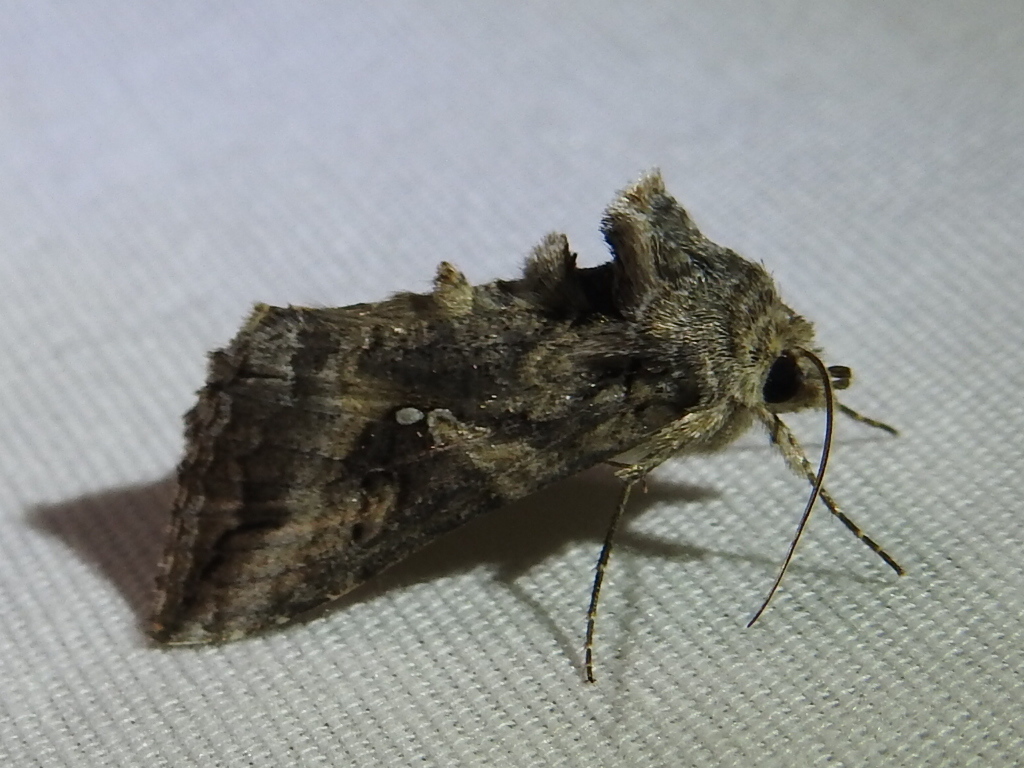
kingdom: Animalia
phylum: Arthropoda
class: Insecta
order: Lepidoptera
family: Noctuidae
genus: Rachiplusia
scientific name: Rachiplusia ou
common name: Gray looper moth
